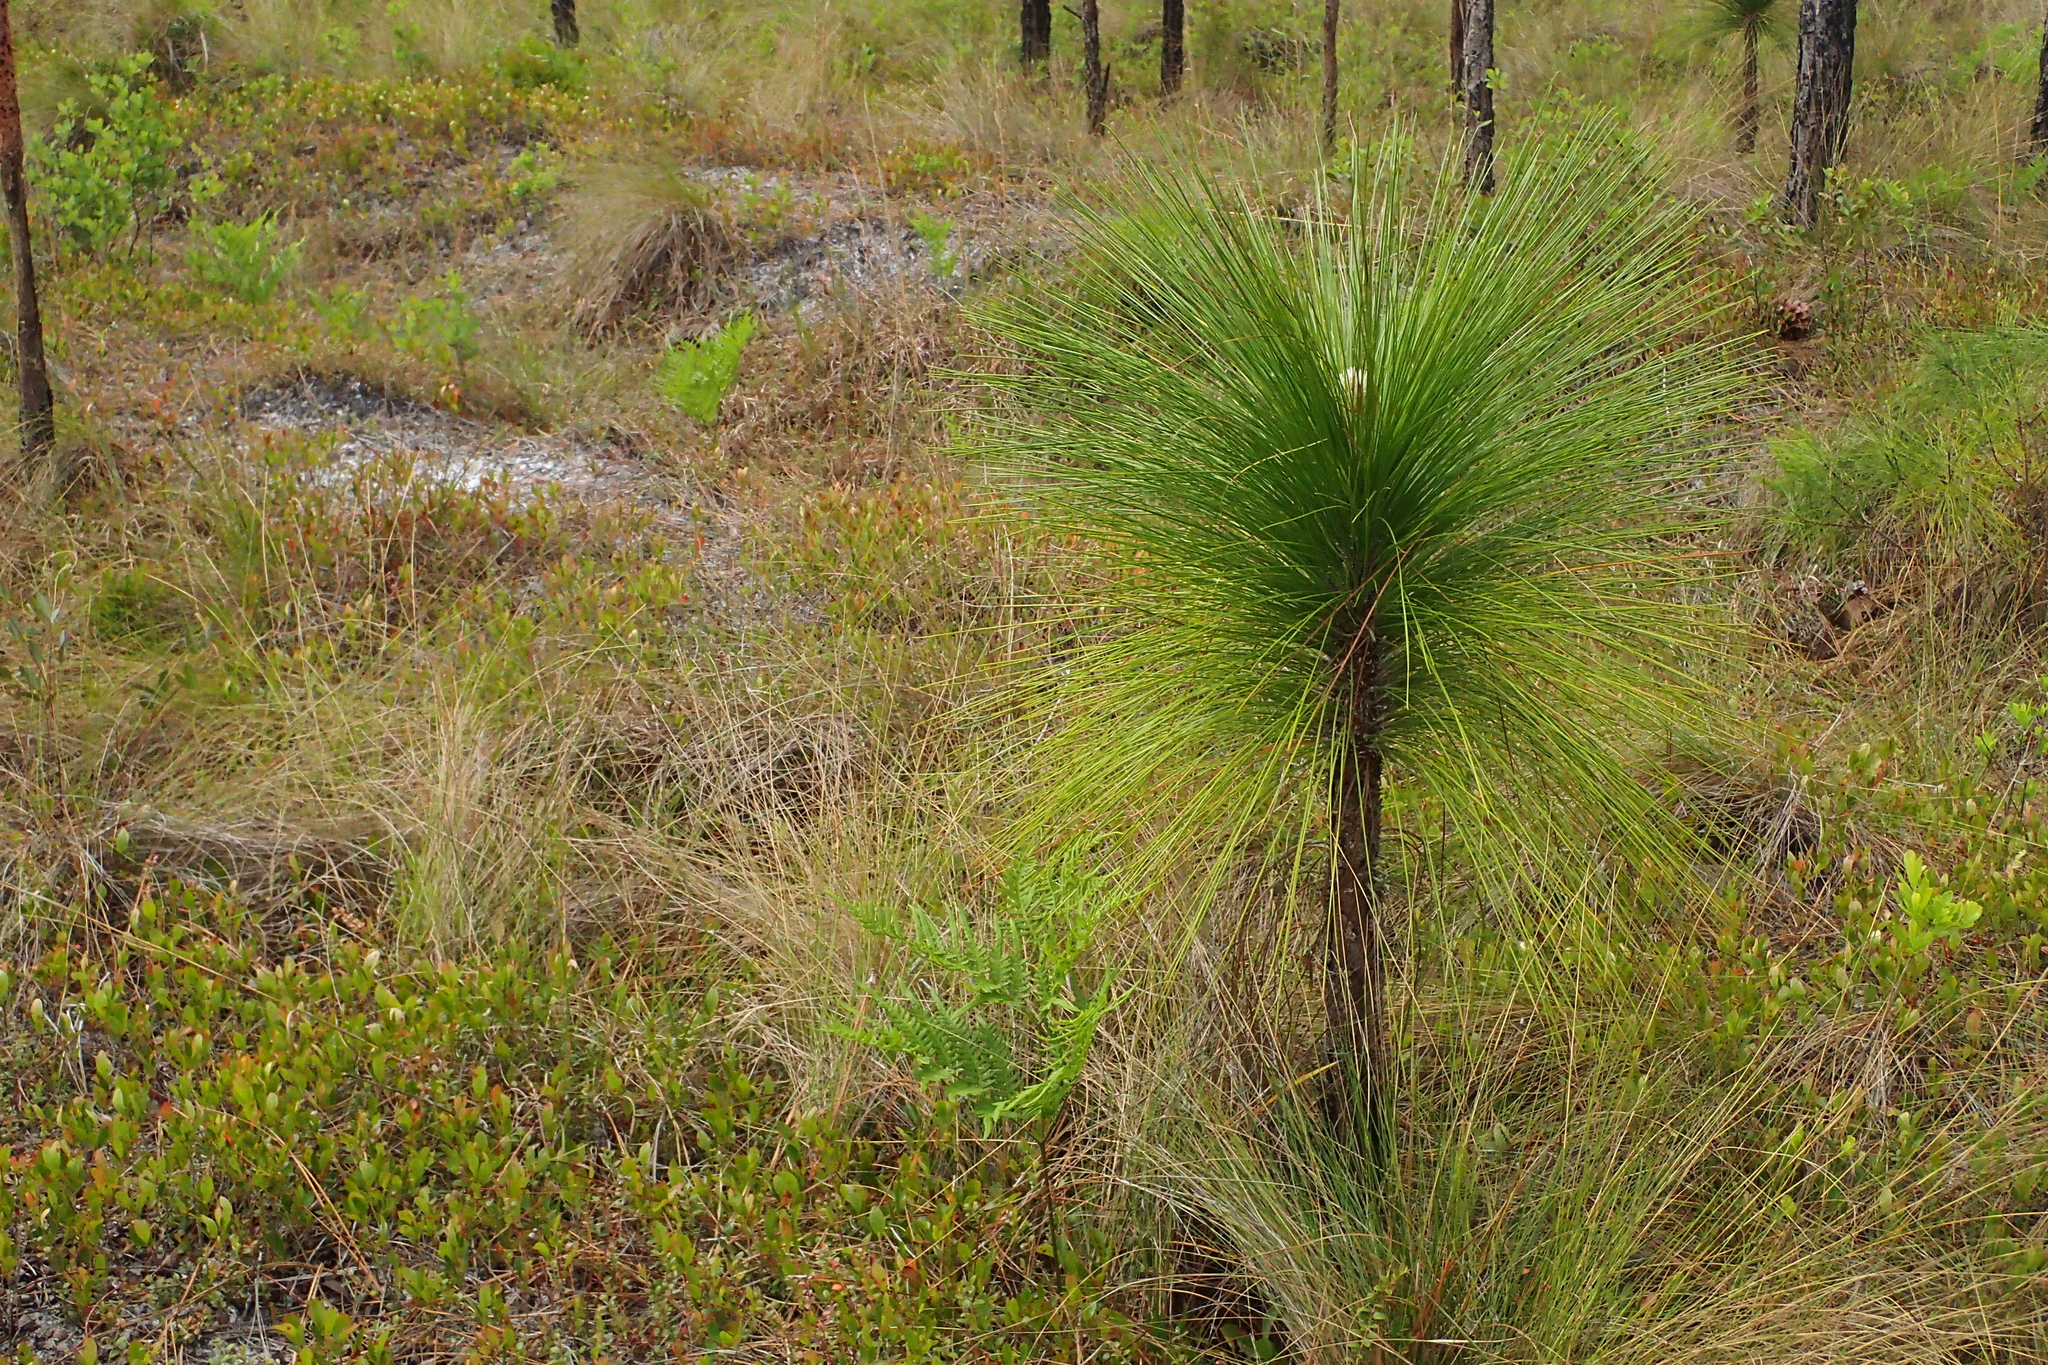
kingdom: Plantae
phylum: Tracheophyta
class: Pinopsida
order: Pinales
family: Pinaceae
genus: Pinus
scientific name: Pinus palustris
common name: Longleaf pine
